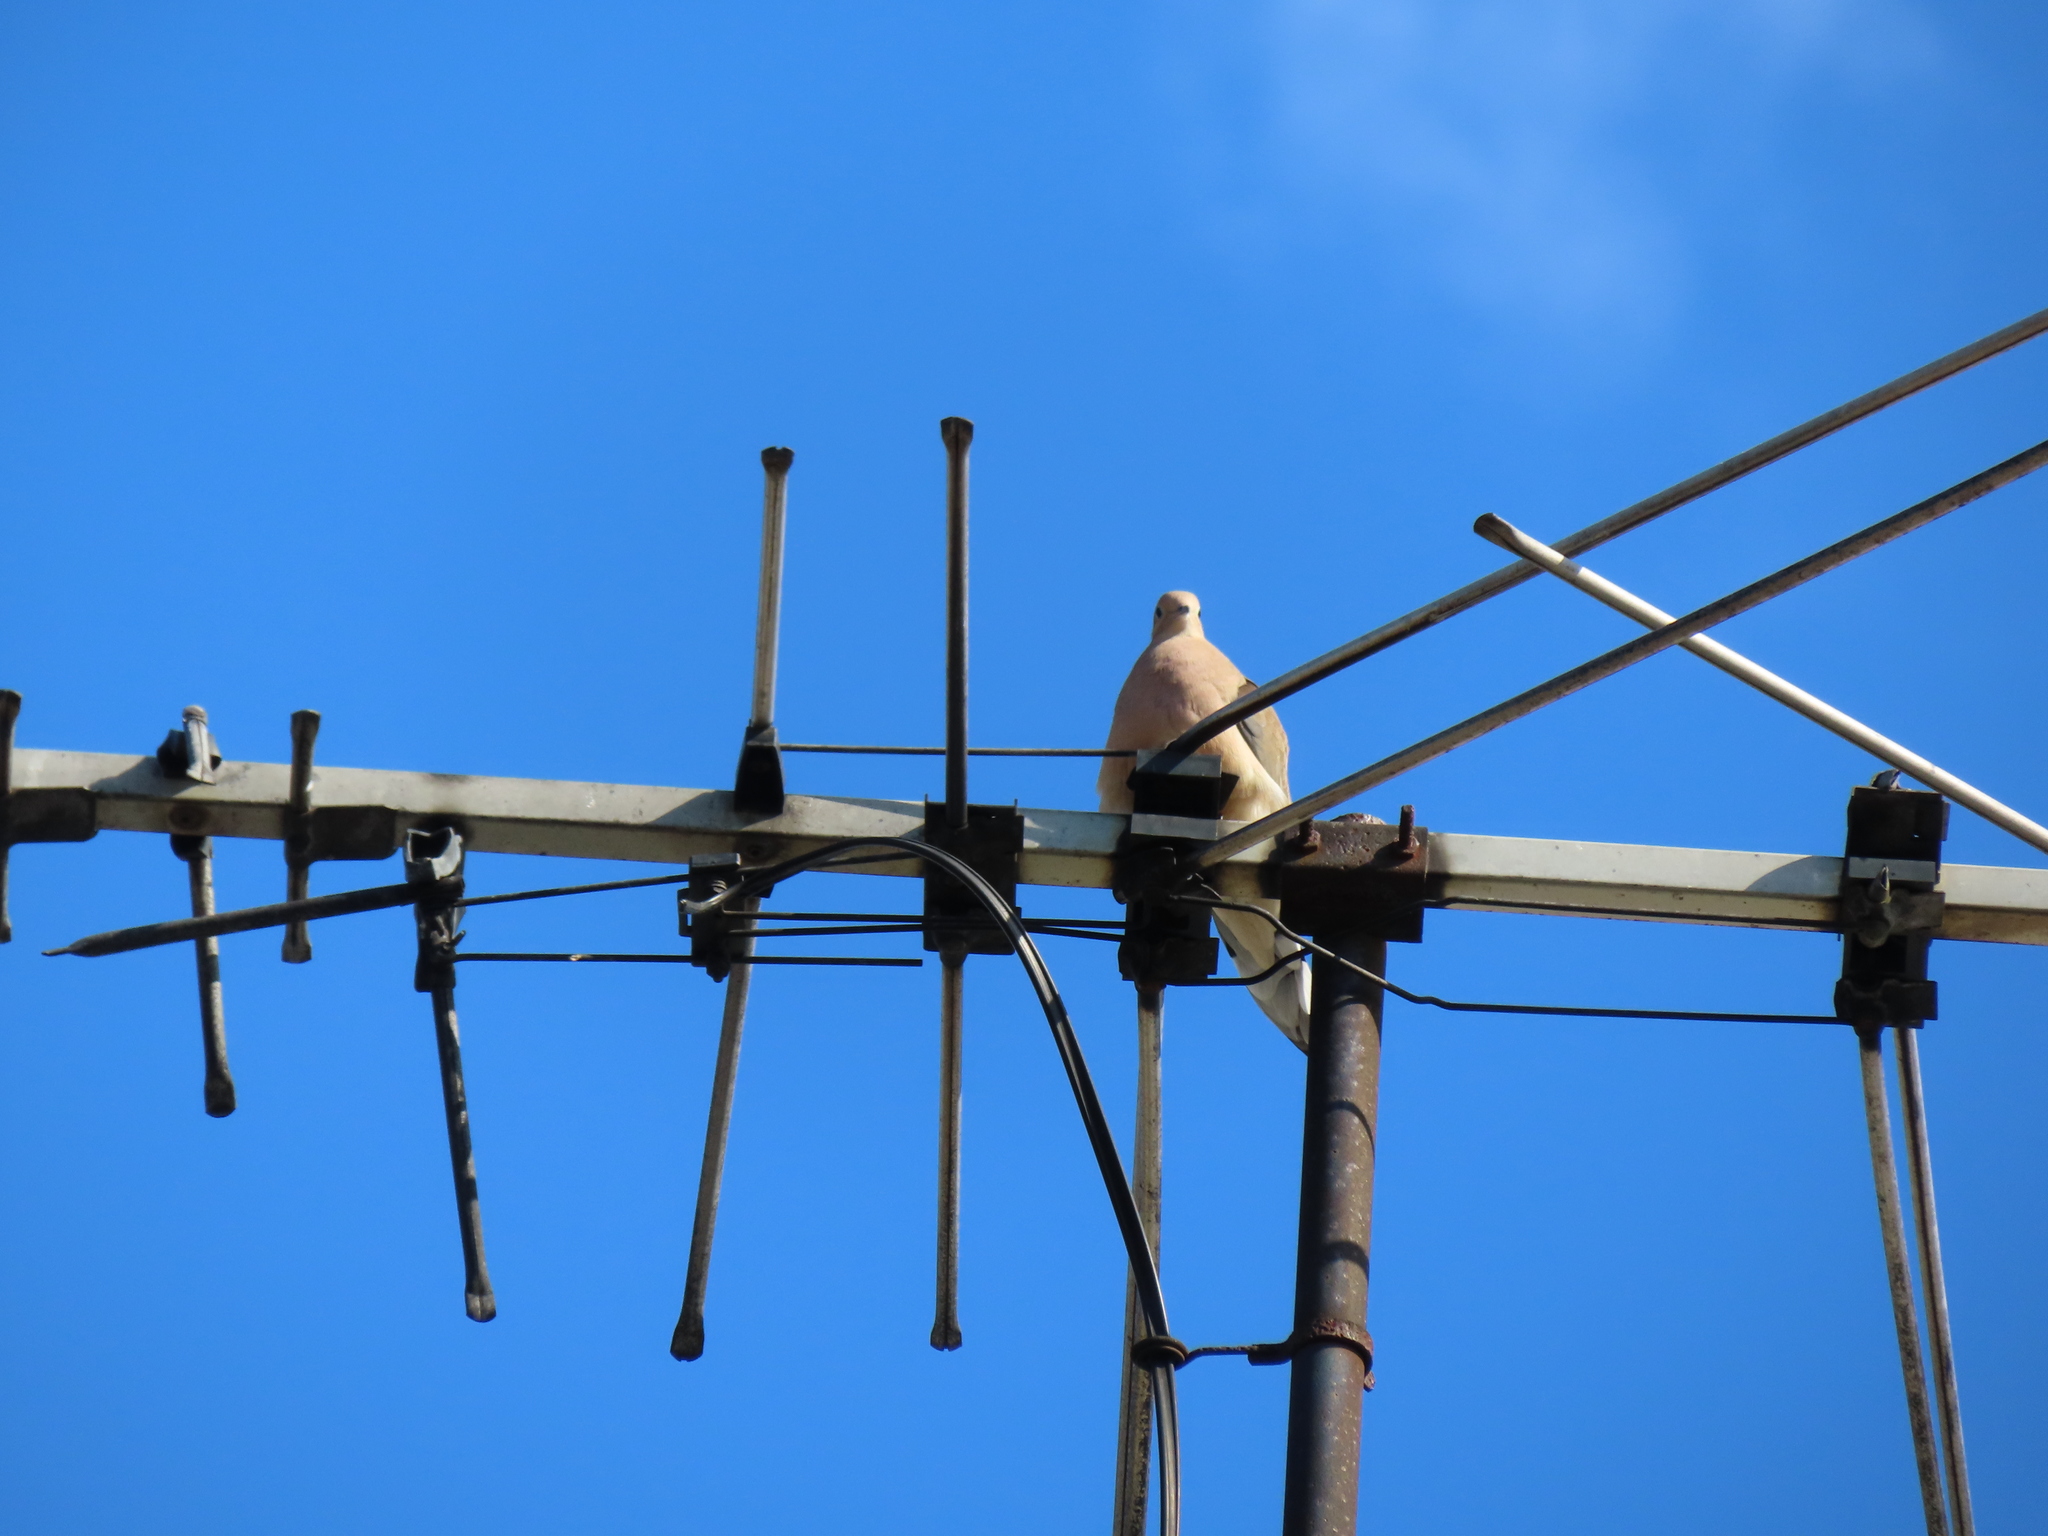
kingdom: Animalia
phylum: Chordata
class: Aves
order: Columbiformes
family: Columbidae
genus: Zenaida
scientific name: Zenaida macroura
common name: Mourning dove
